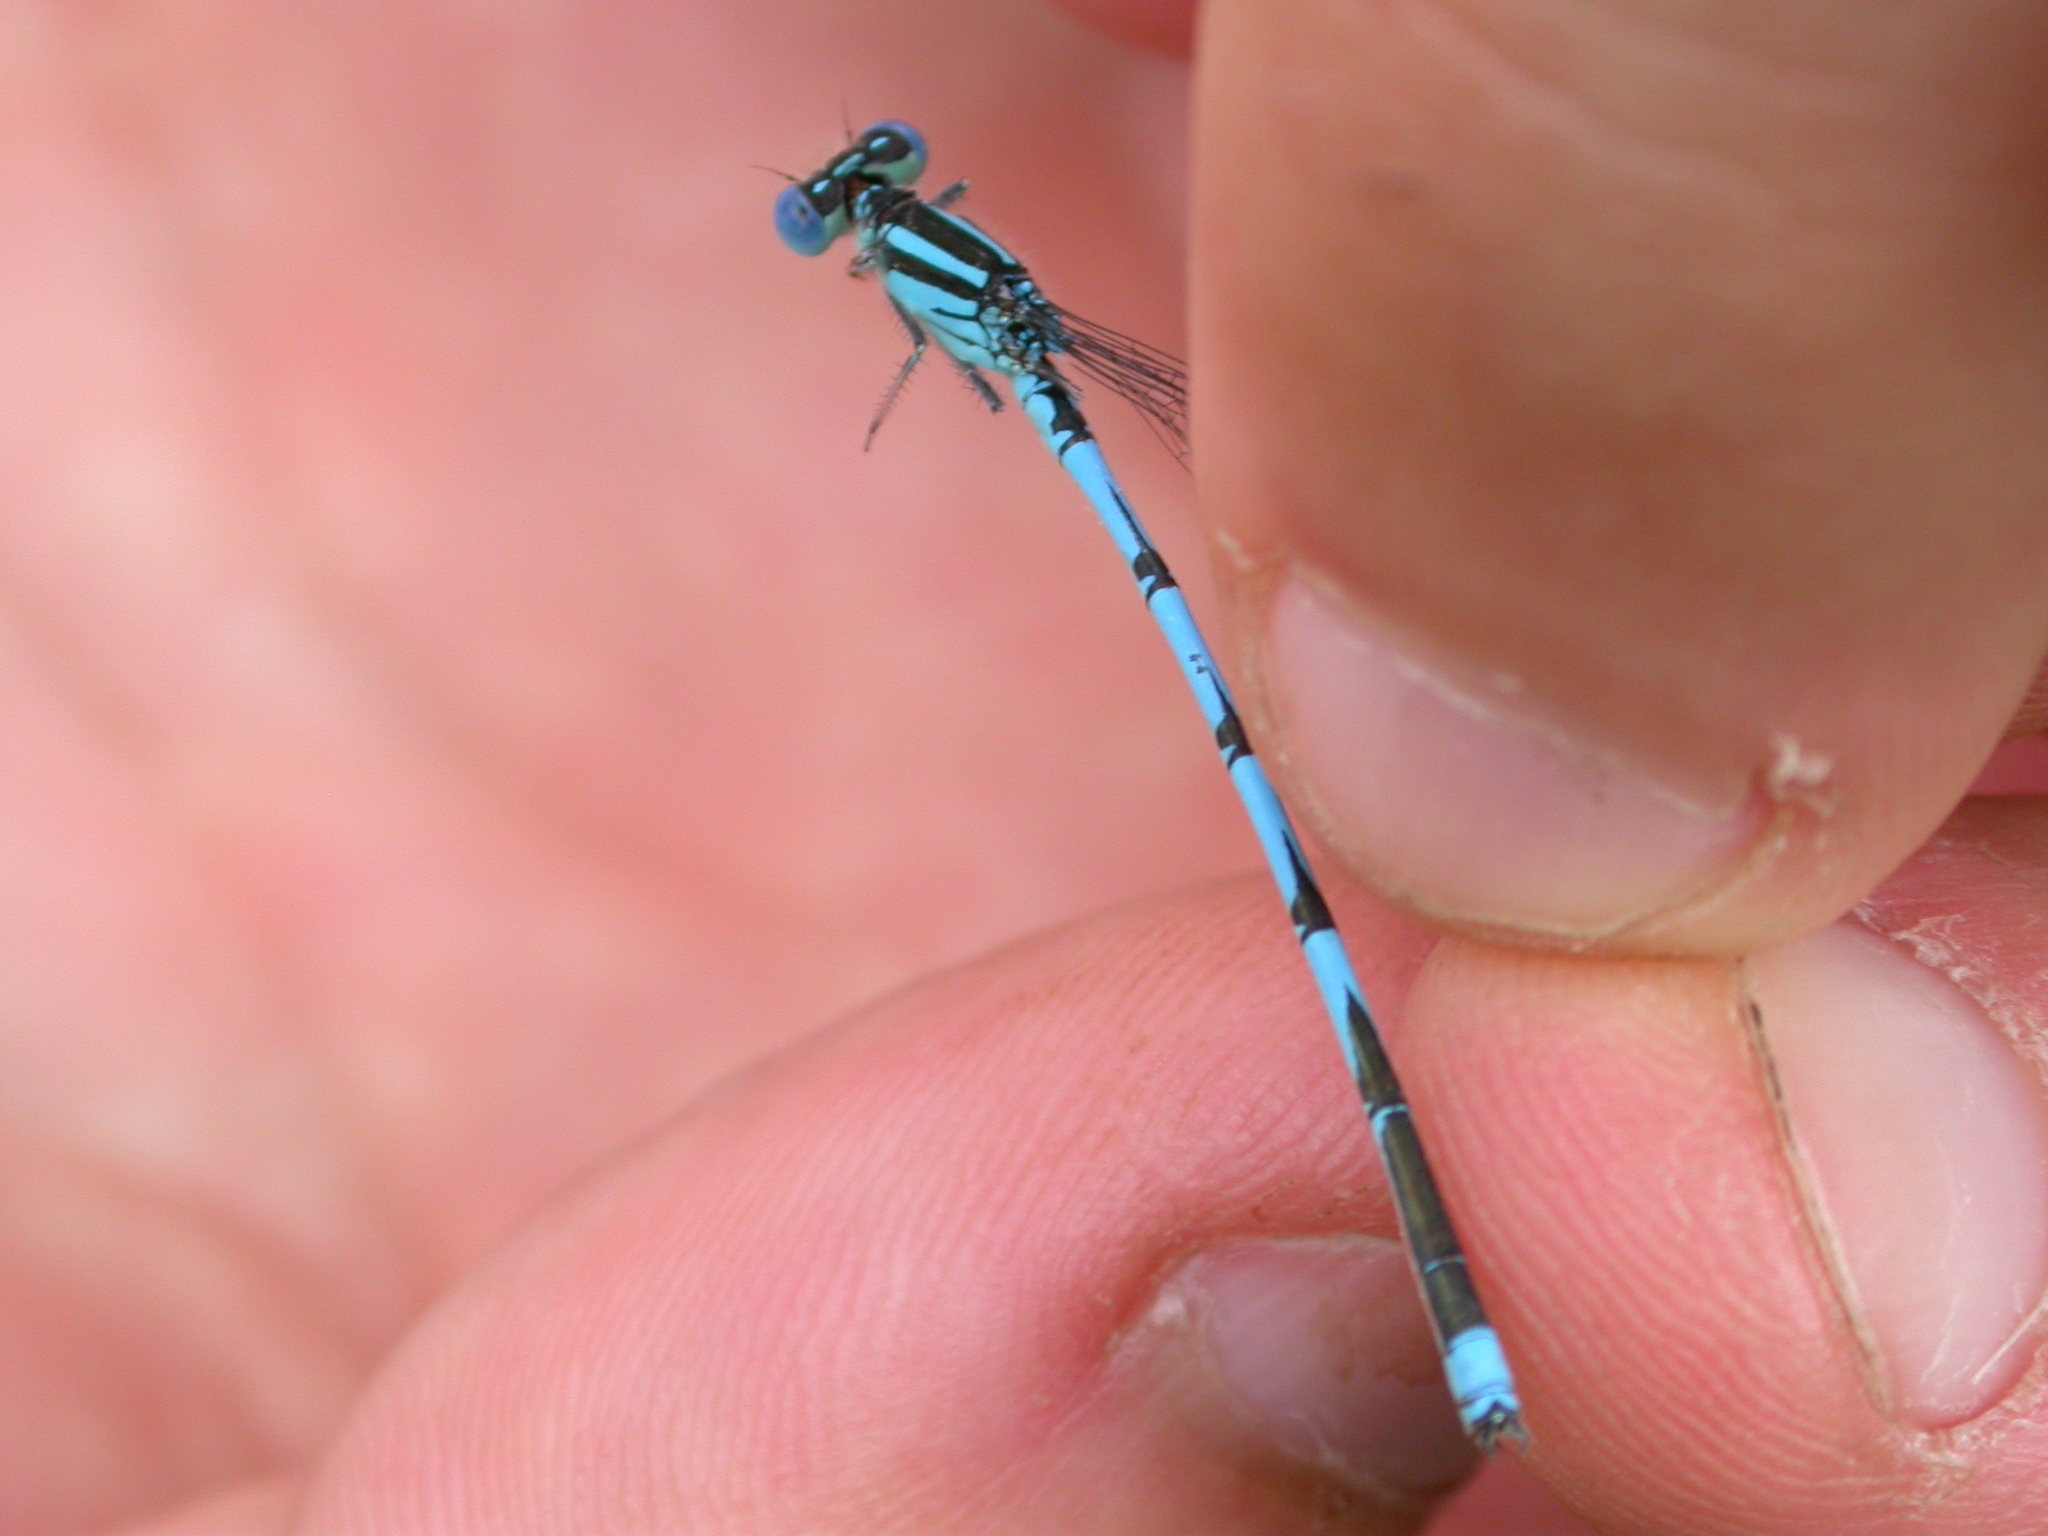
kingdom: Animalia
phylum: Arthropoda
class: Insecta
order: Odonata
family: Coenagrionidae
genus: Erythromma
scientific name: Erythromma lindenii
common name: Blue-eye
